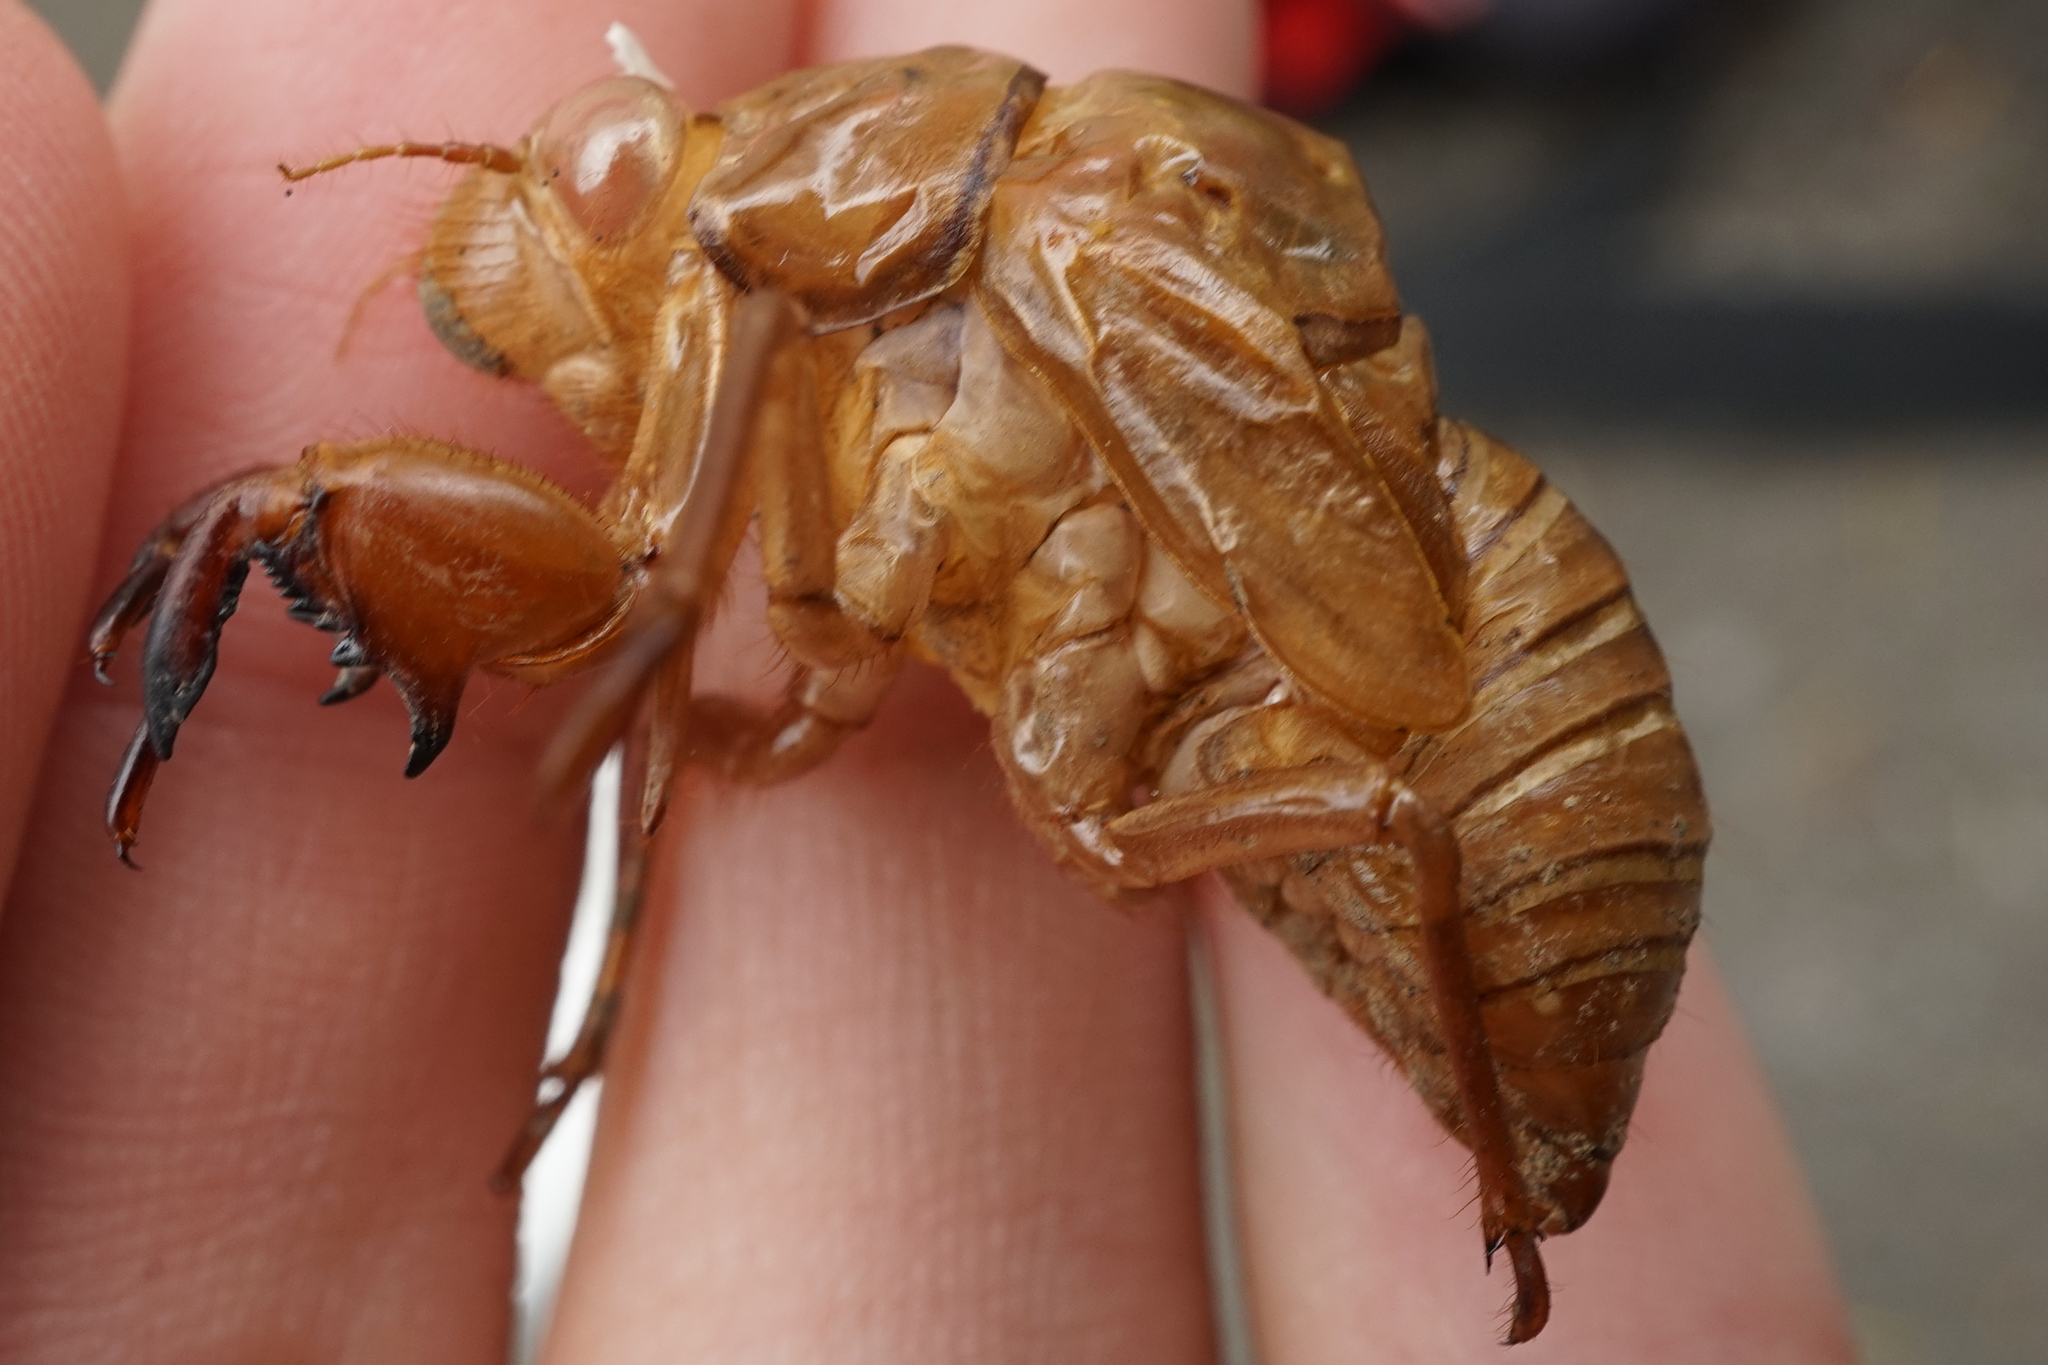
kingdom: Animalia
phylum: Arthropoda
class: Insecta
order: Hemiptera
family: Cicadidae
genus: Hyalessa
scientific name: Hyalessa maculaticollis
